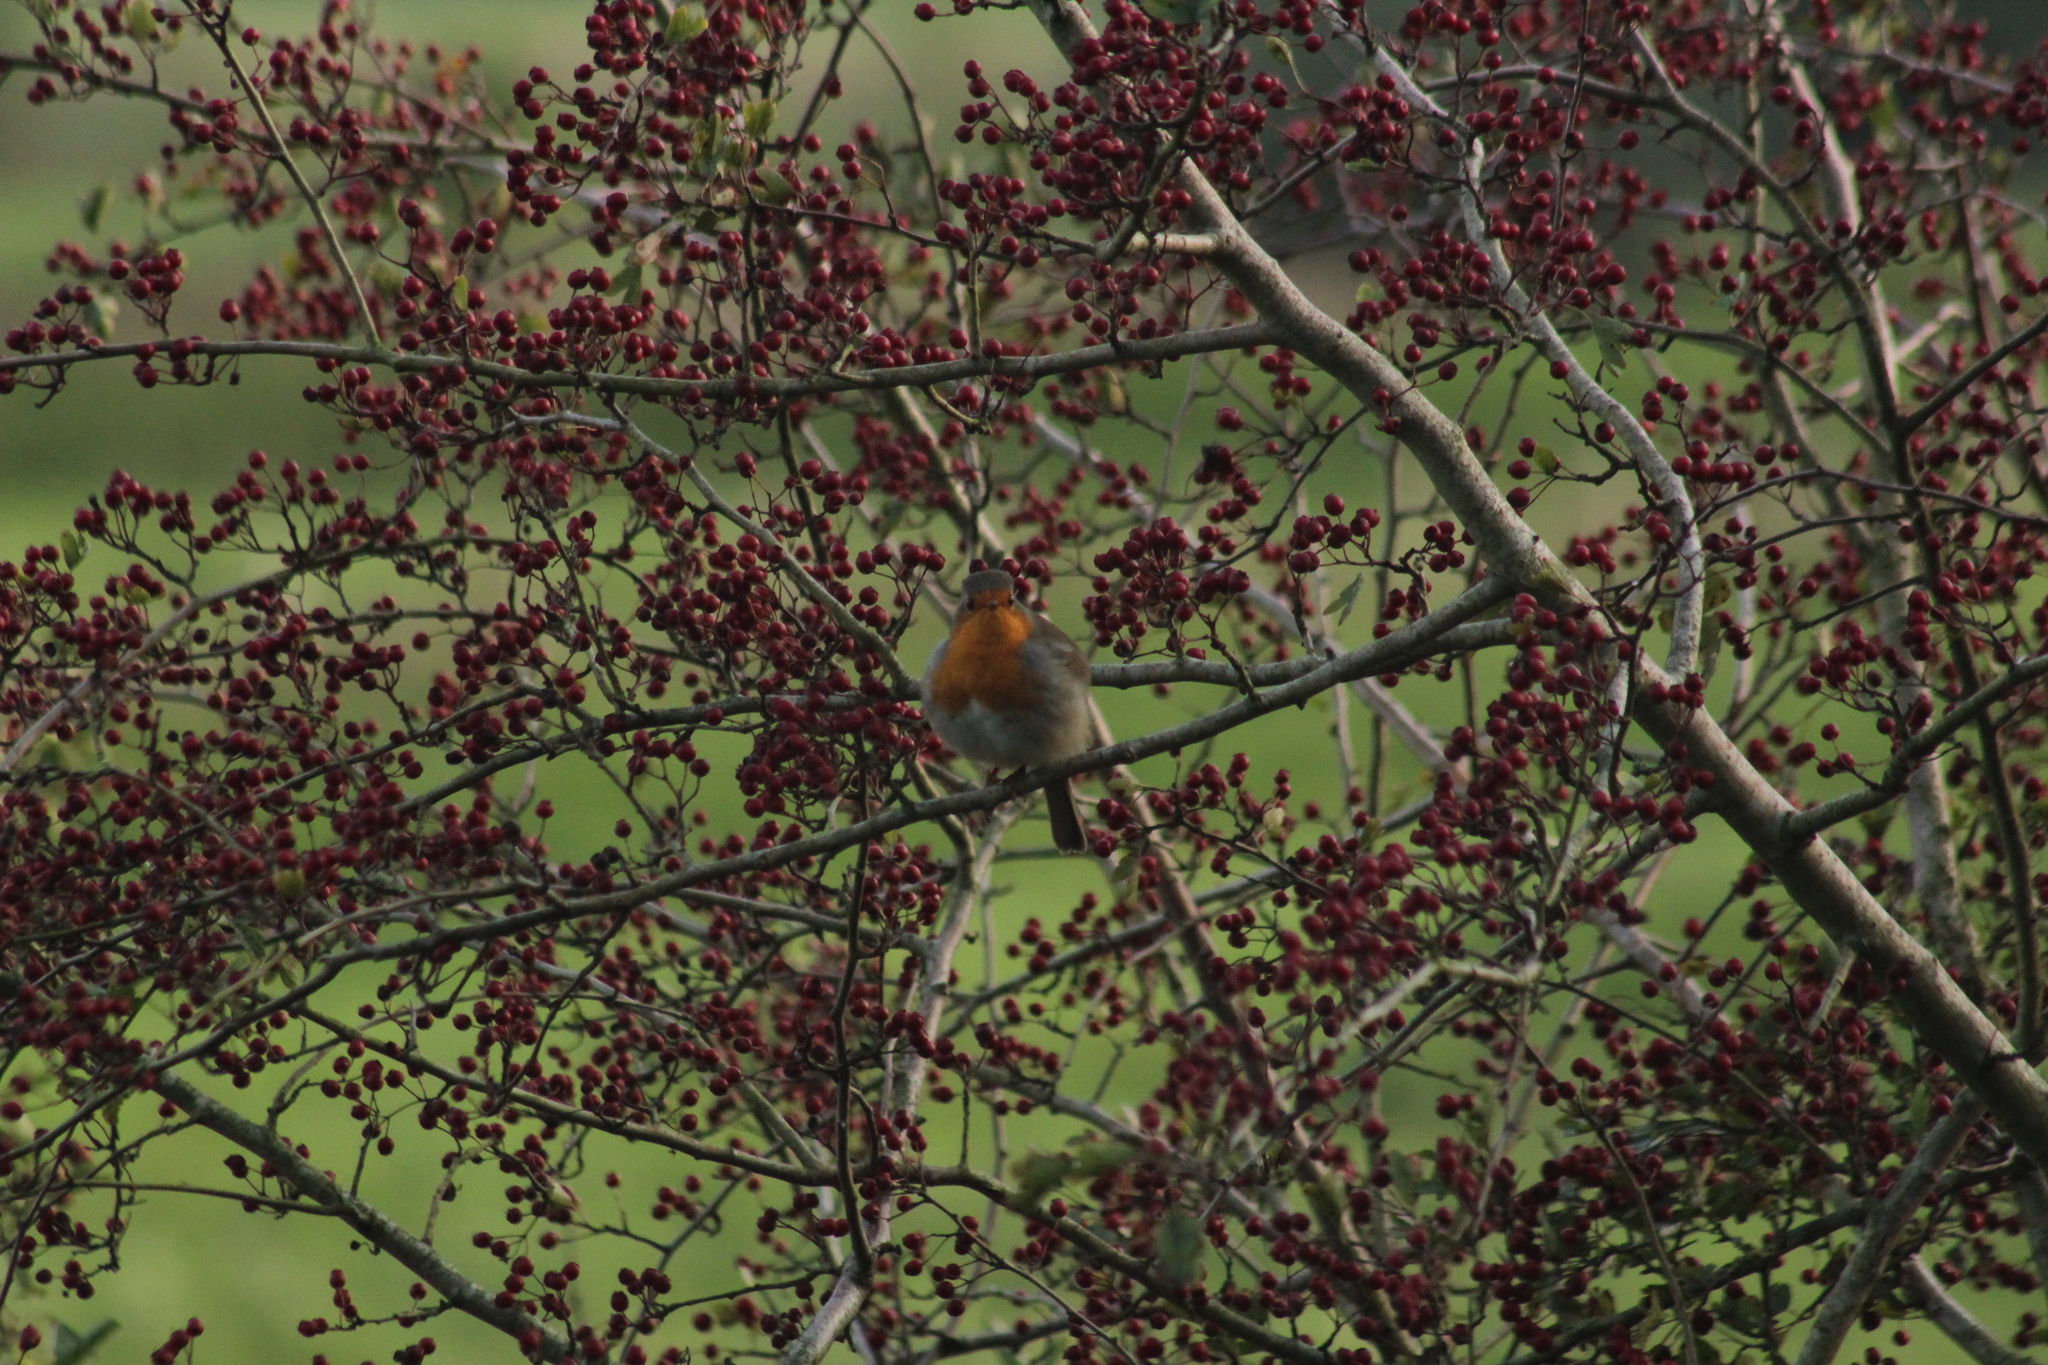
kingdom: Animalia
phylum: Chordata
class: Aves
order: Passeriformes
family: Muscicapidae
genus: Erithacus
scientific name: Erithacus rubecula
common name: European robin
